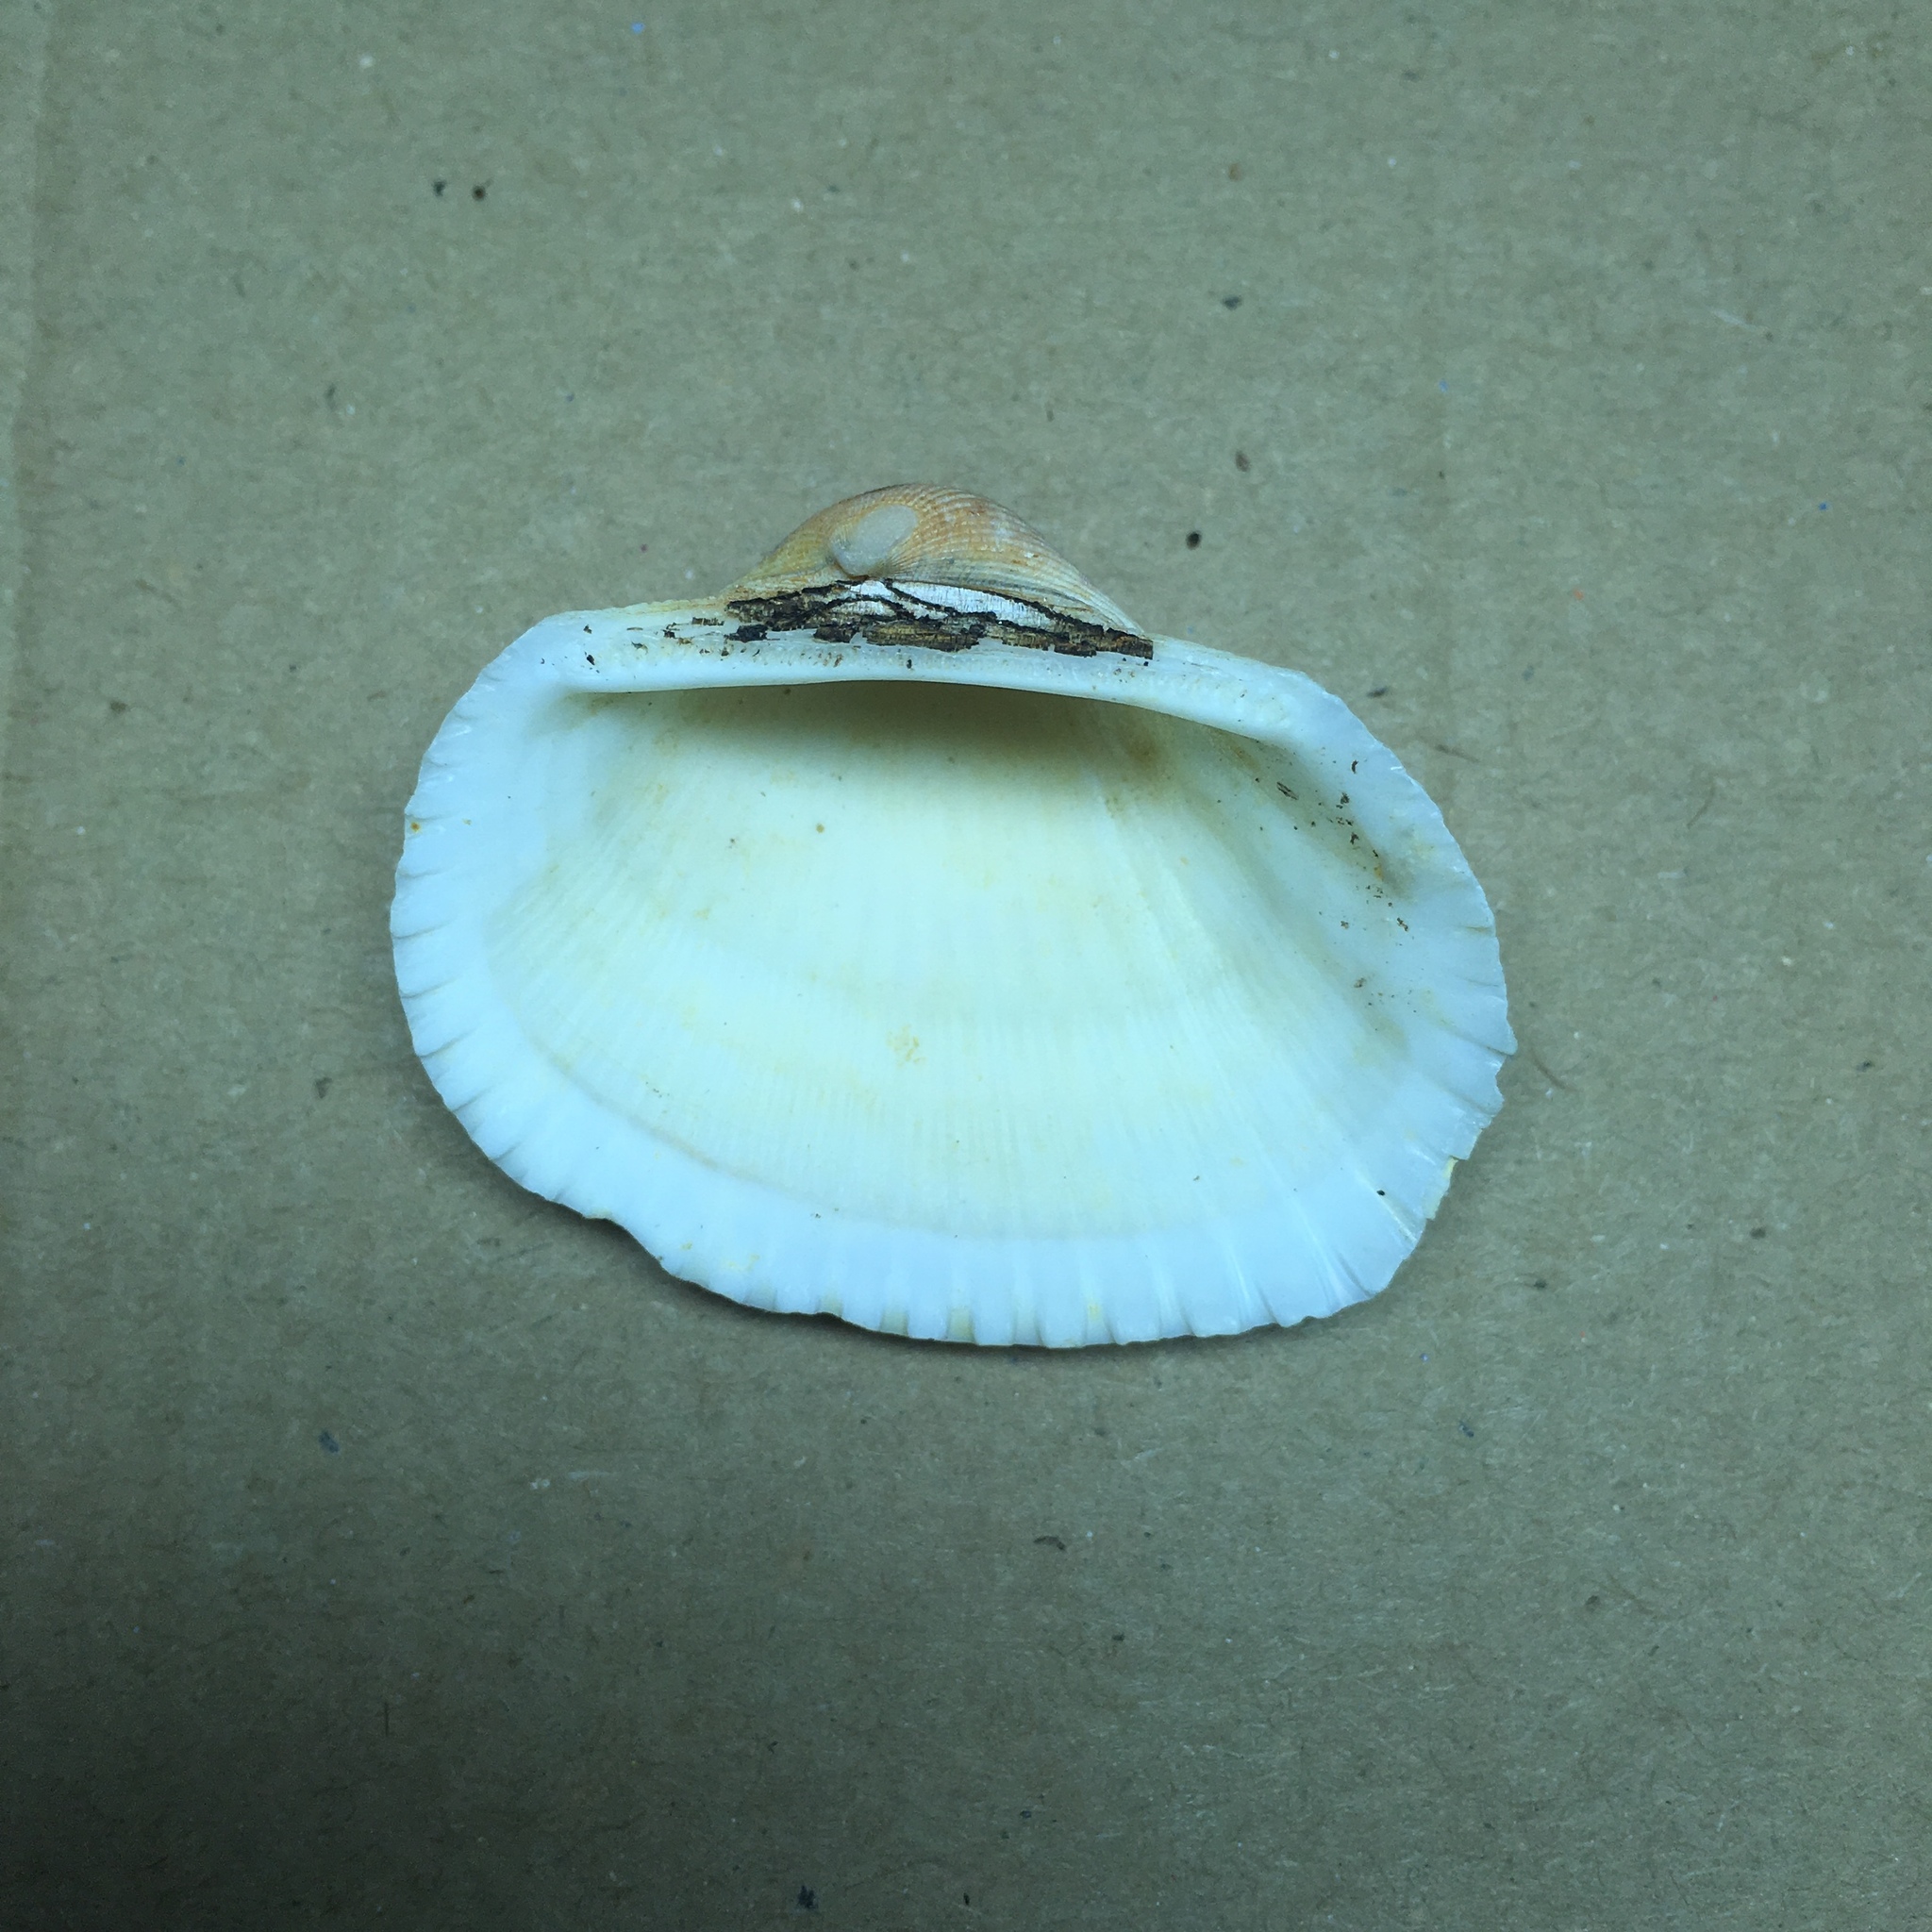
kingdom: Animalia
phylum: Mollusca
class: Bivalvia
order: Arcida
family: Arcidae
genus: Anadara
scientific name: Anadara kagoshimensis
